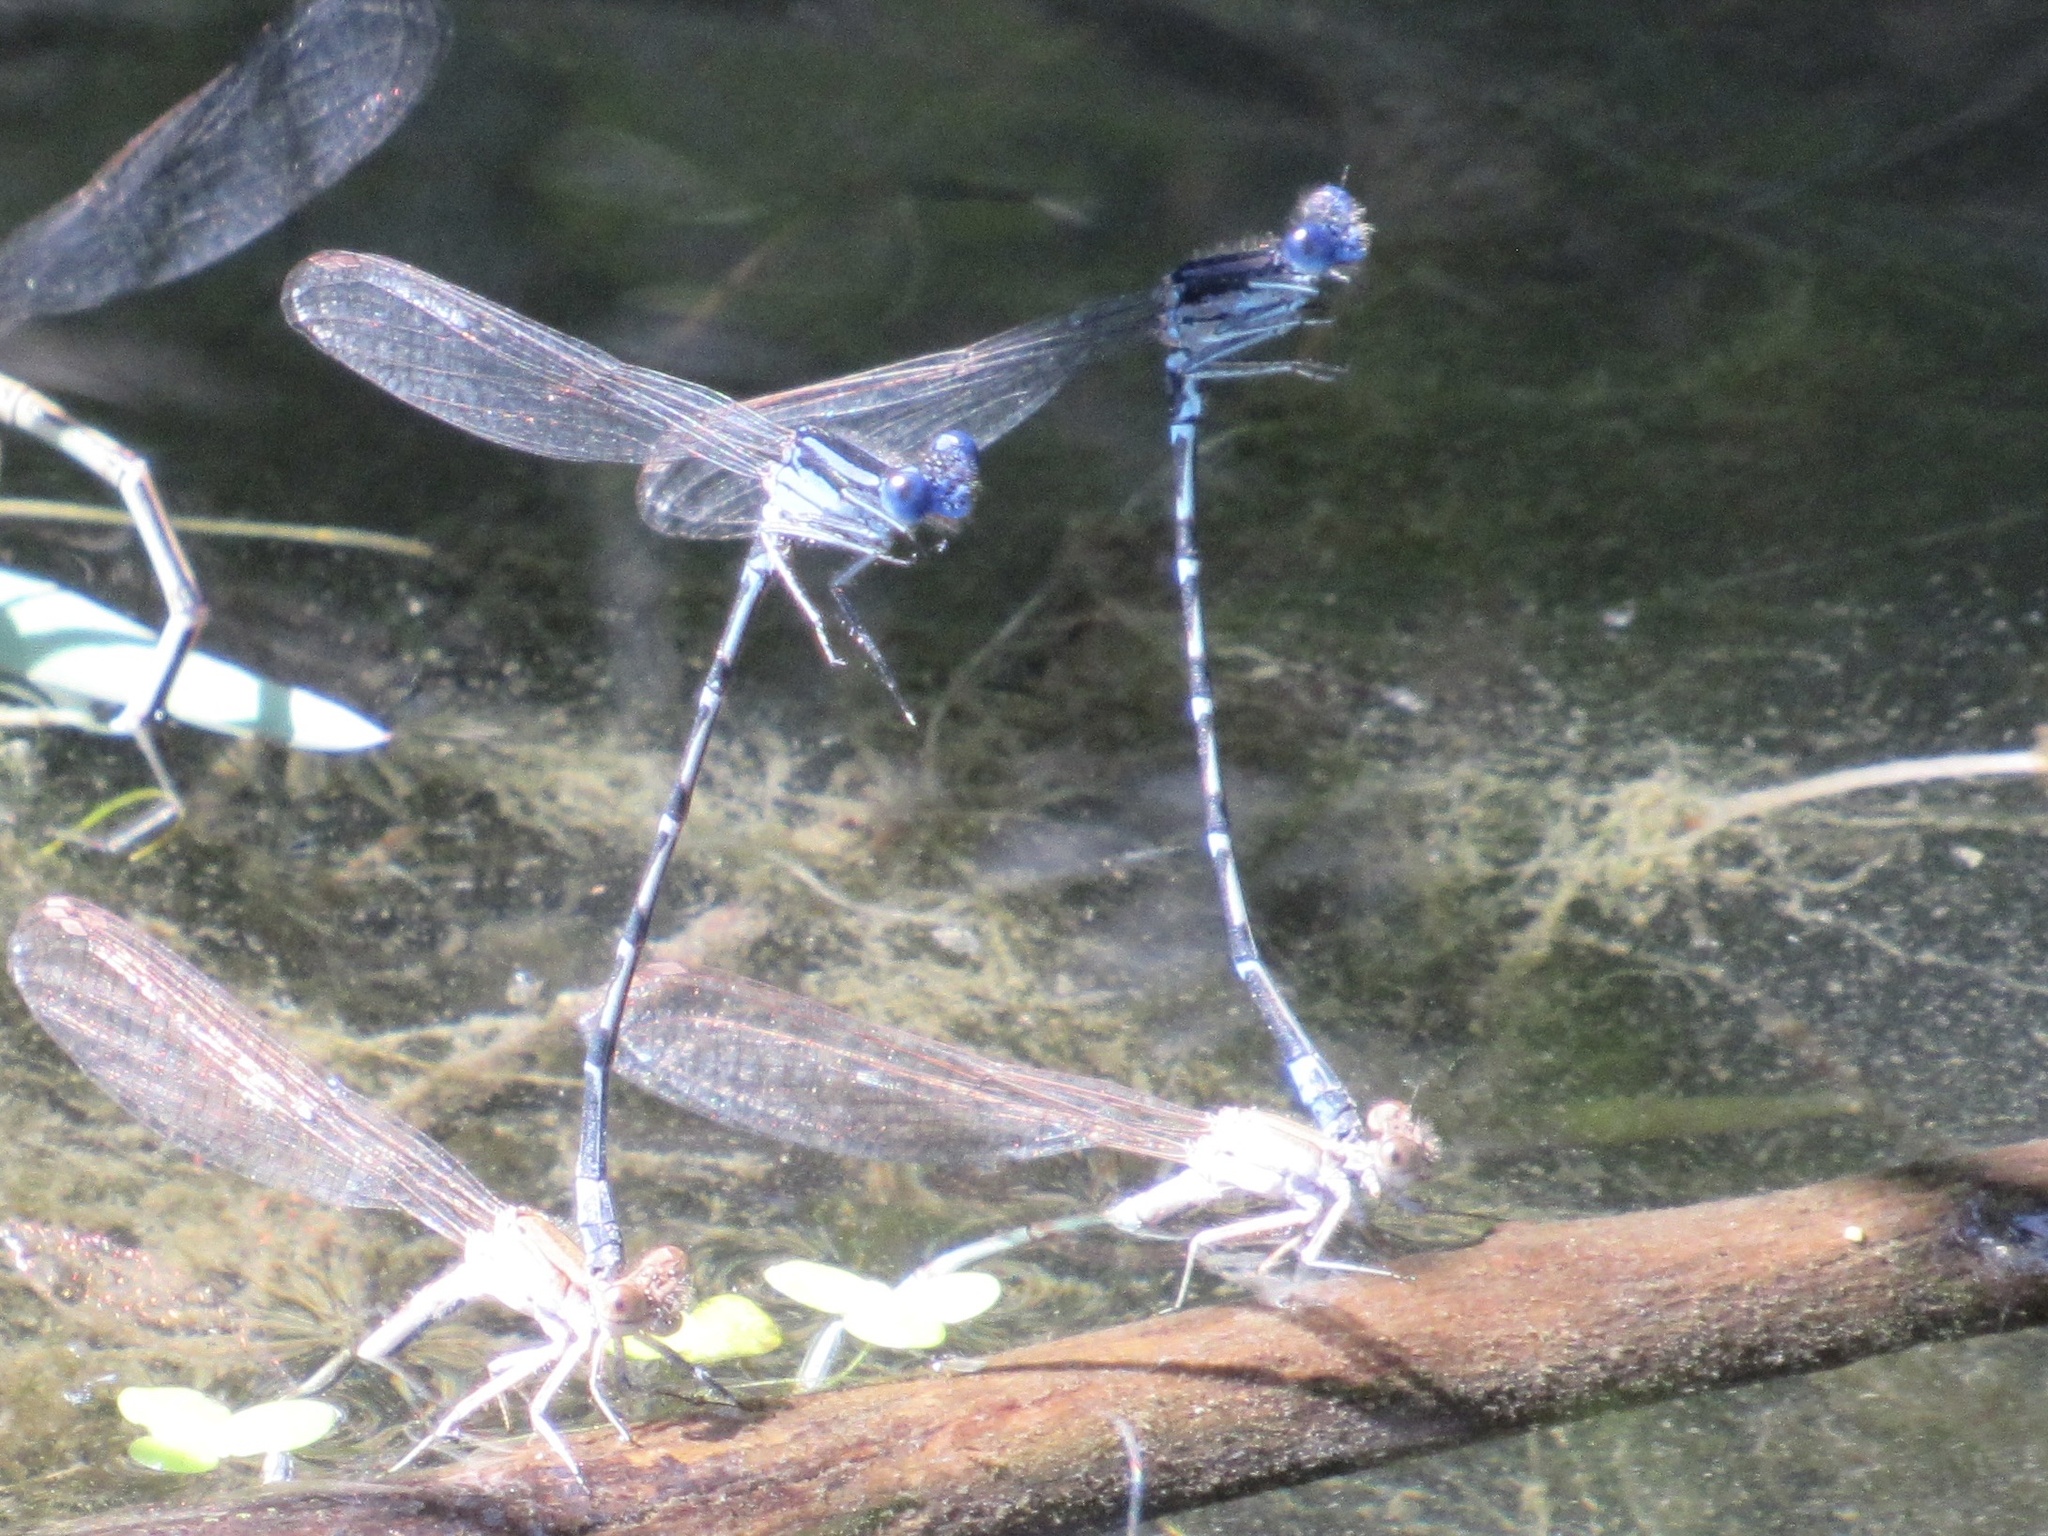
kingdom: Animalia
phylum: Arthropoda
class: Insecta
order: Odonata
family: Coenagrionidae
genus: Argia
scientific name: Argia sedula
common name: Blue-ringed dancer
